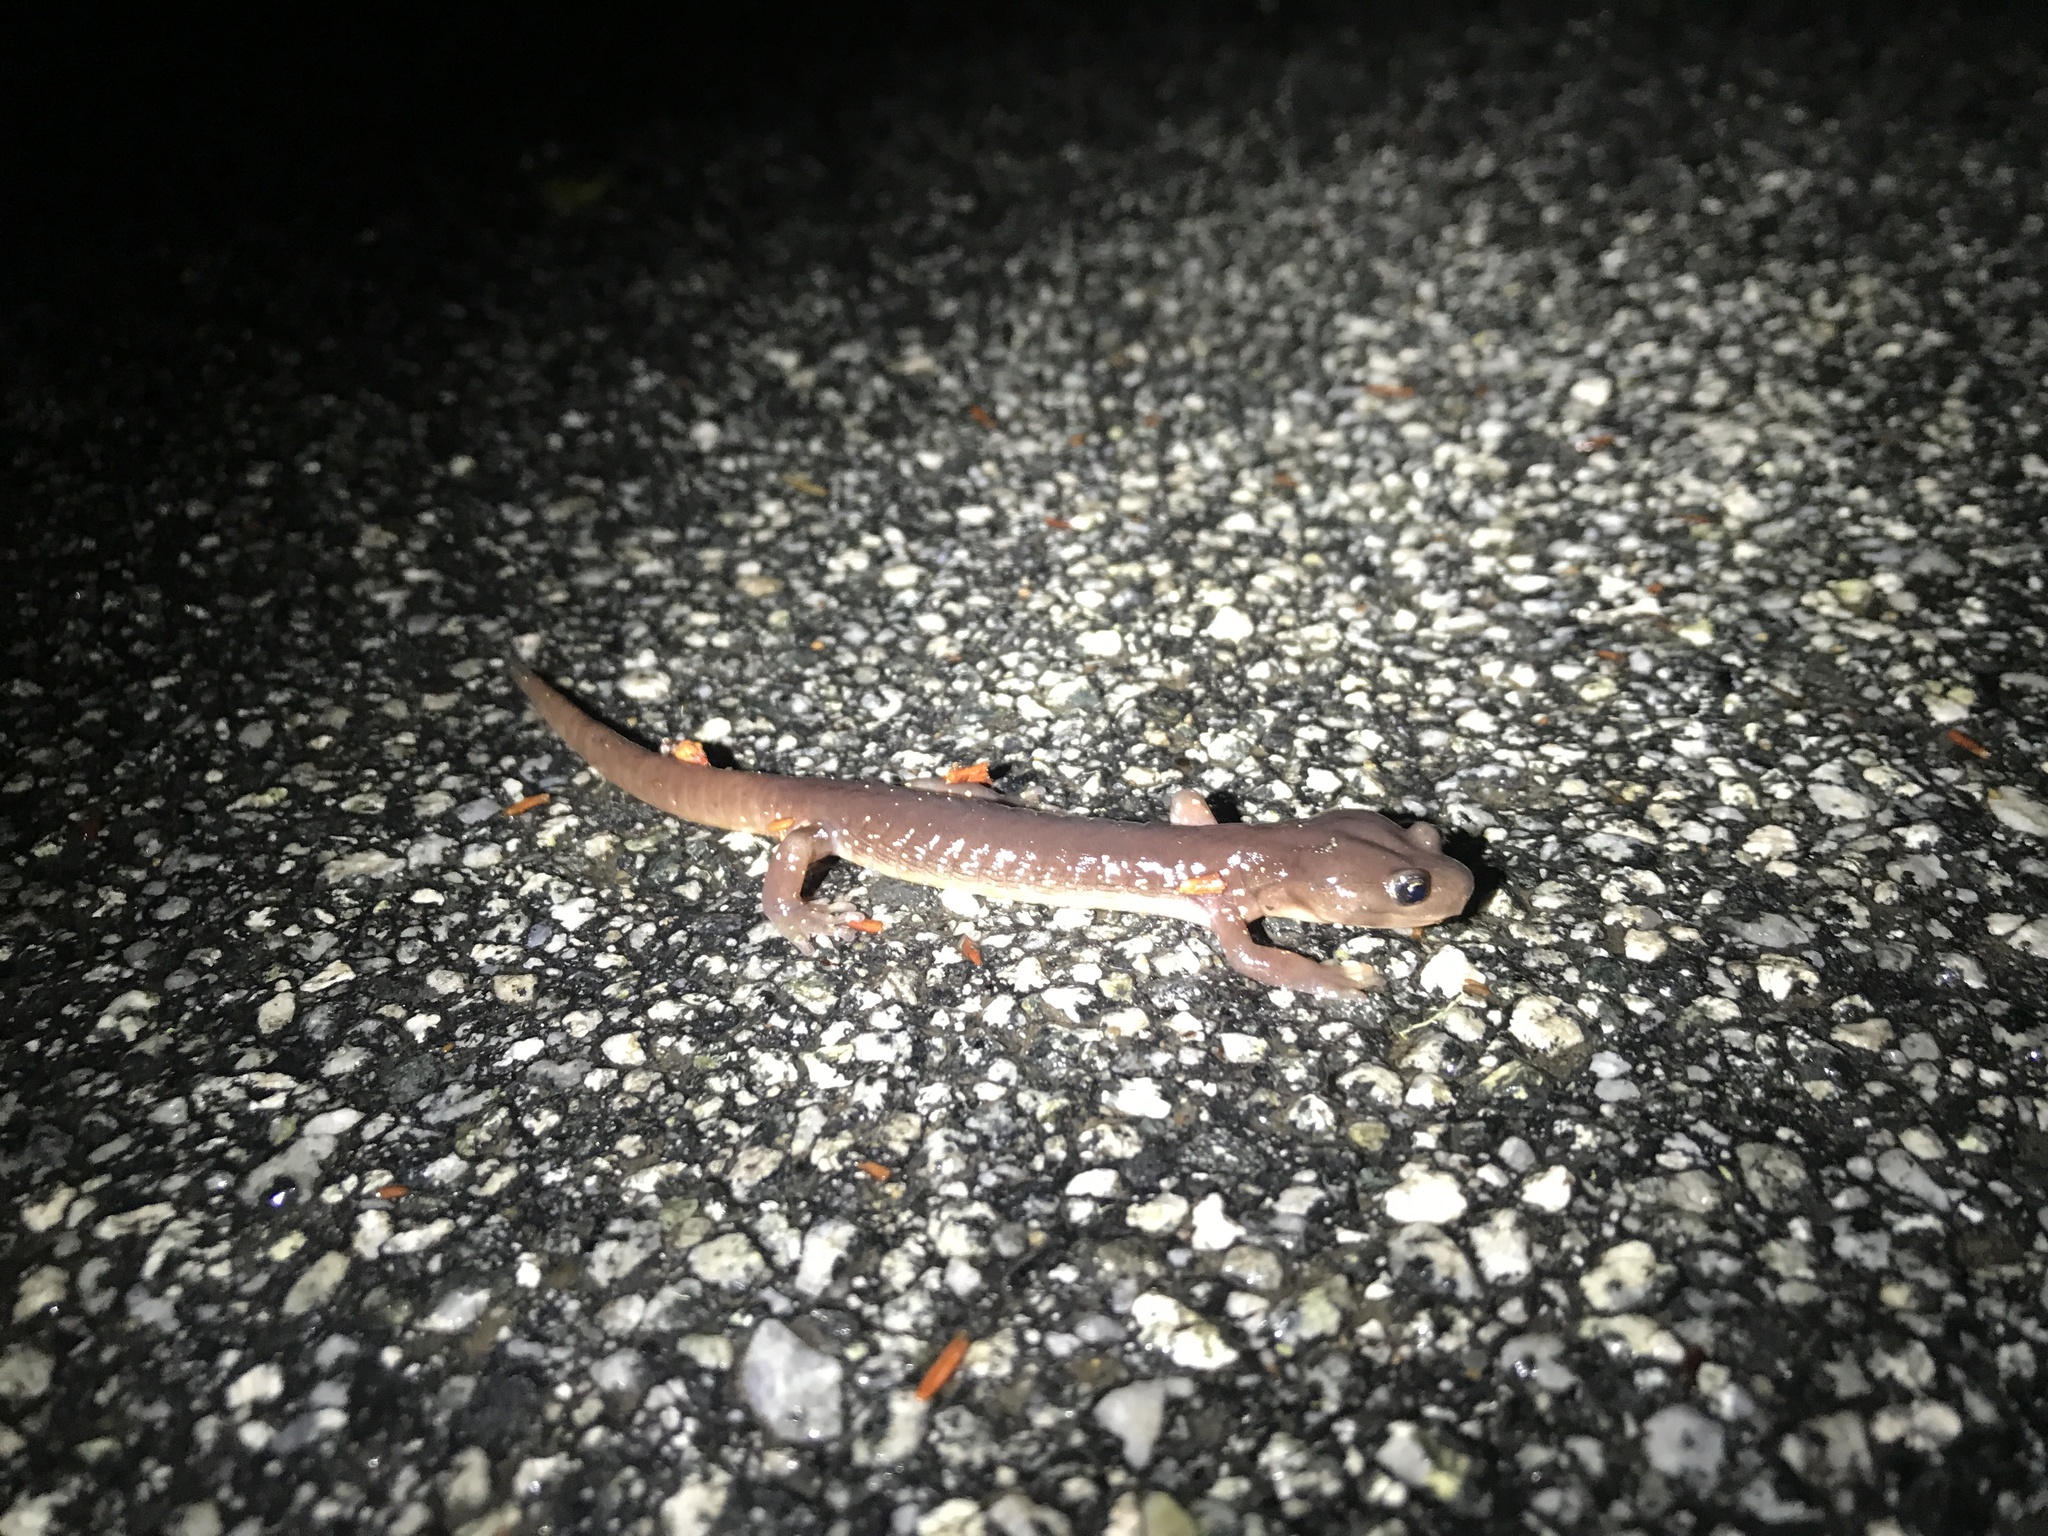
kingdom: Animalia
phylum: Chordata
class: Amphibia
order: Caudata
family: Plethodontidae
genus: Aneides
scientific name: Aneides lugubris
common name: Arboreal salamander
